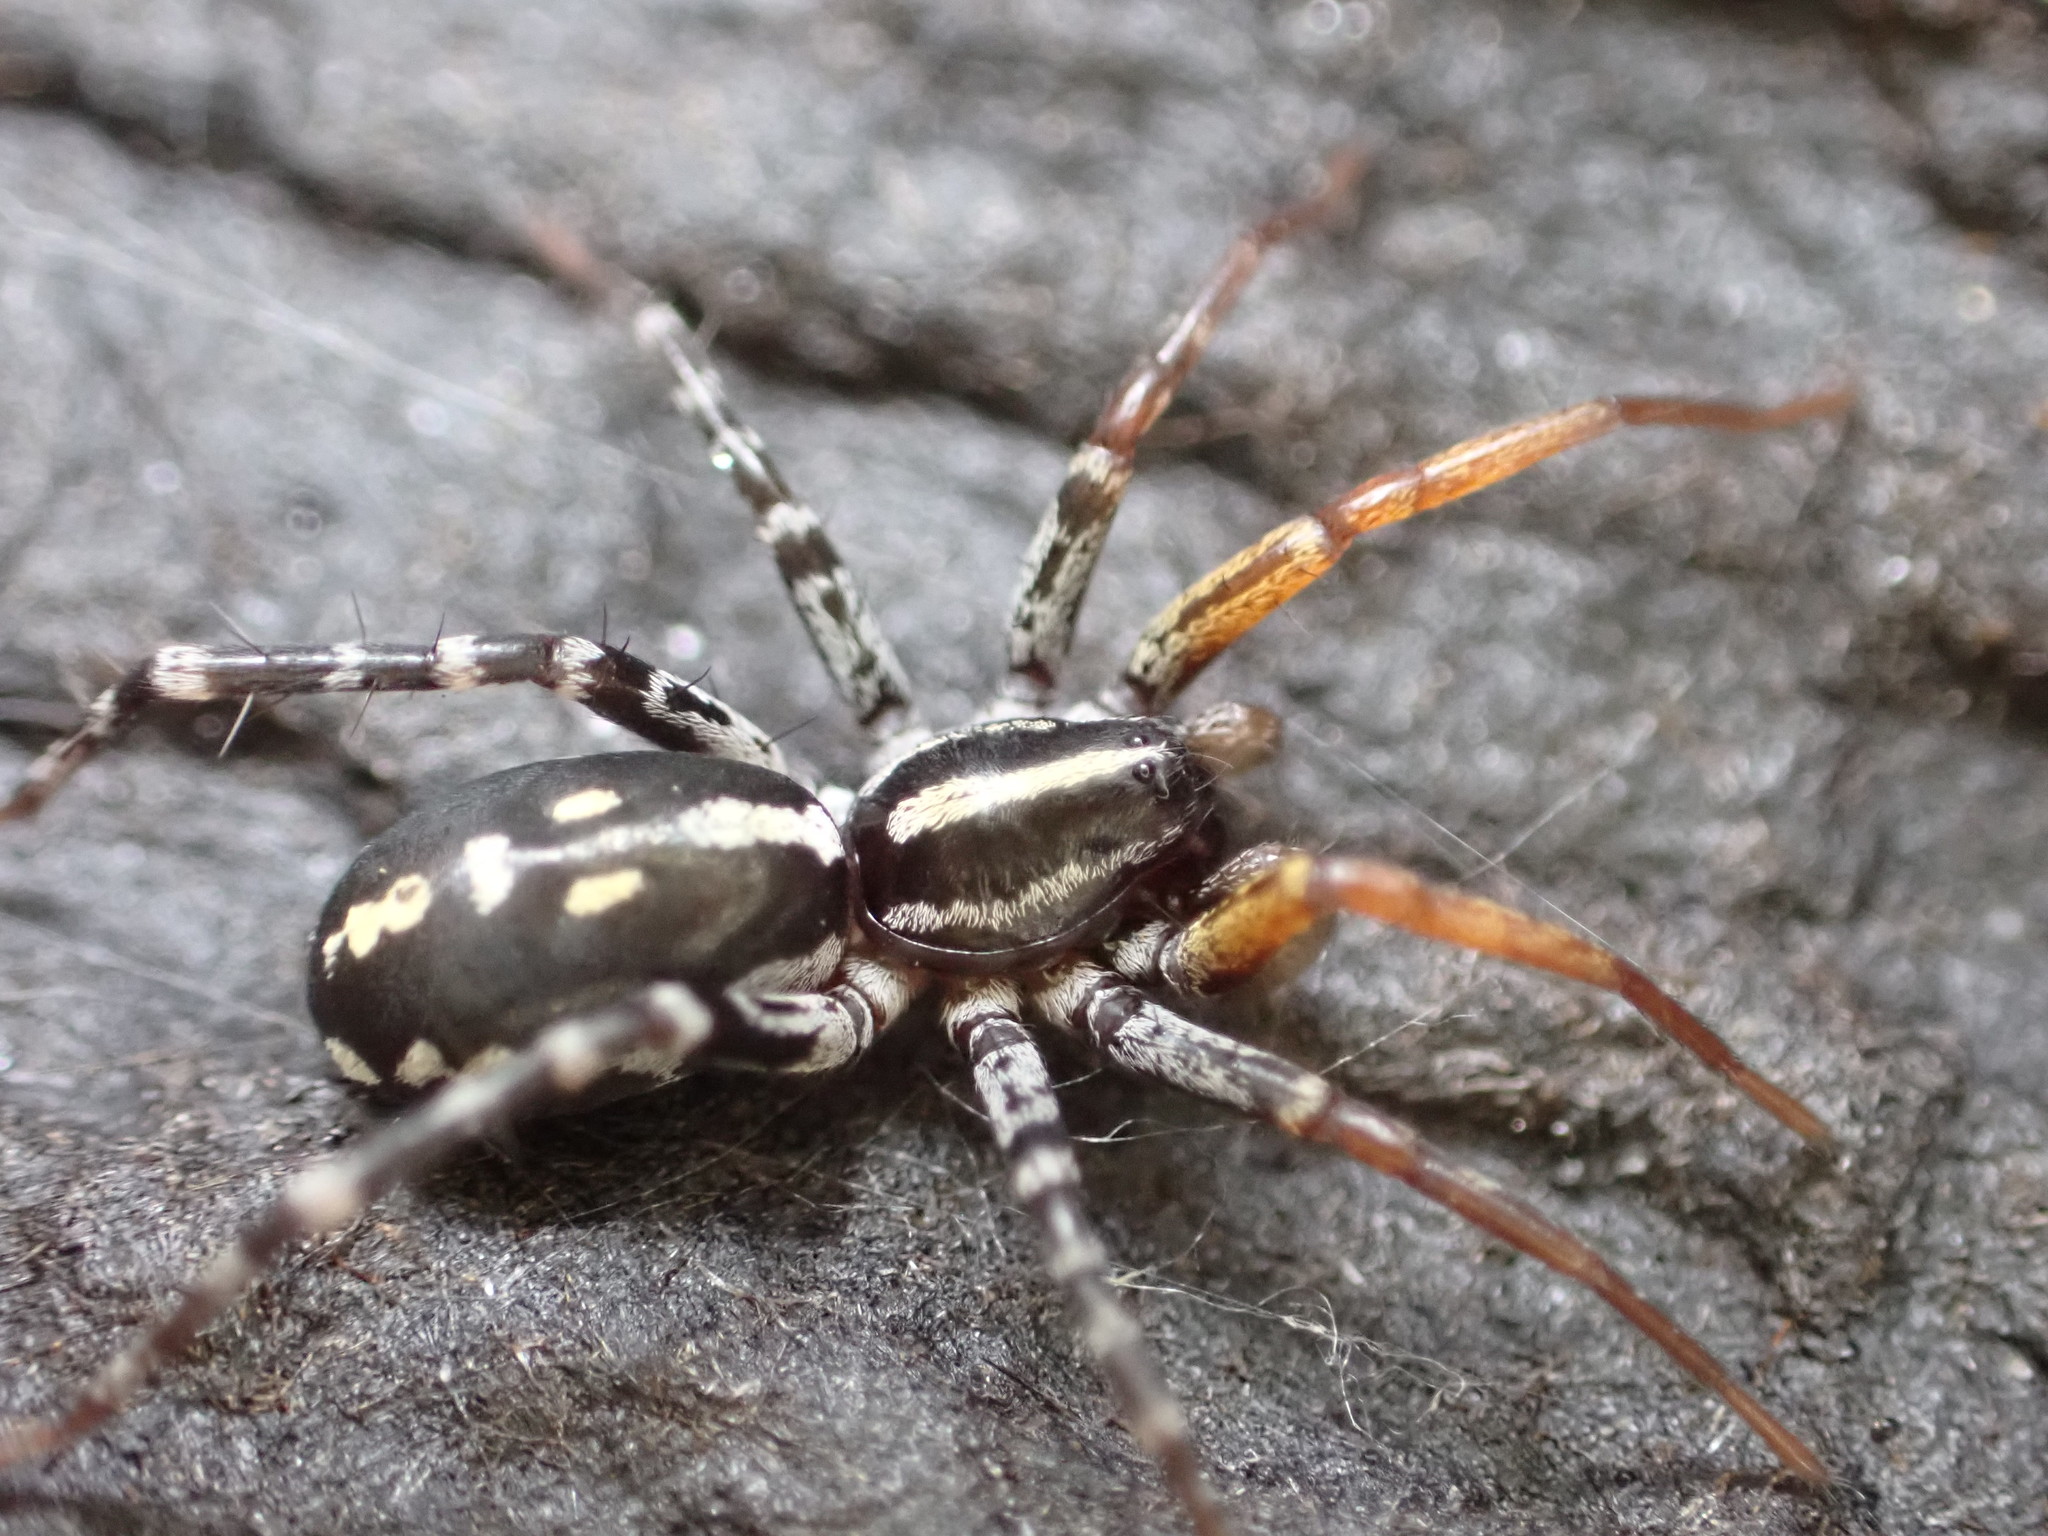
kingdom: Animalia
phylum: Arthropoda
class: Arachnida
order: Araneae
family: Corinnidae
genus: Nyssus
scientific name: Nyssus coloripes
